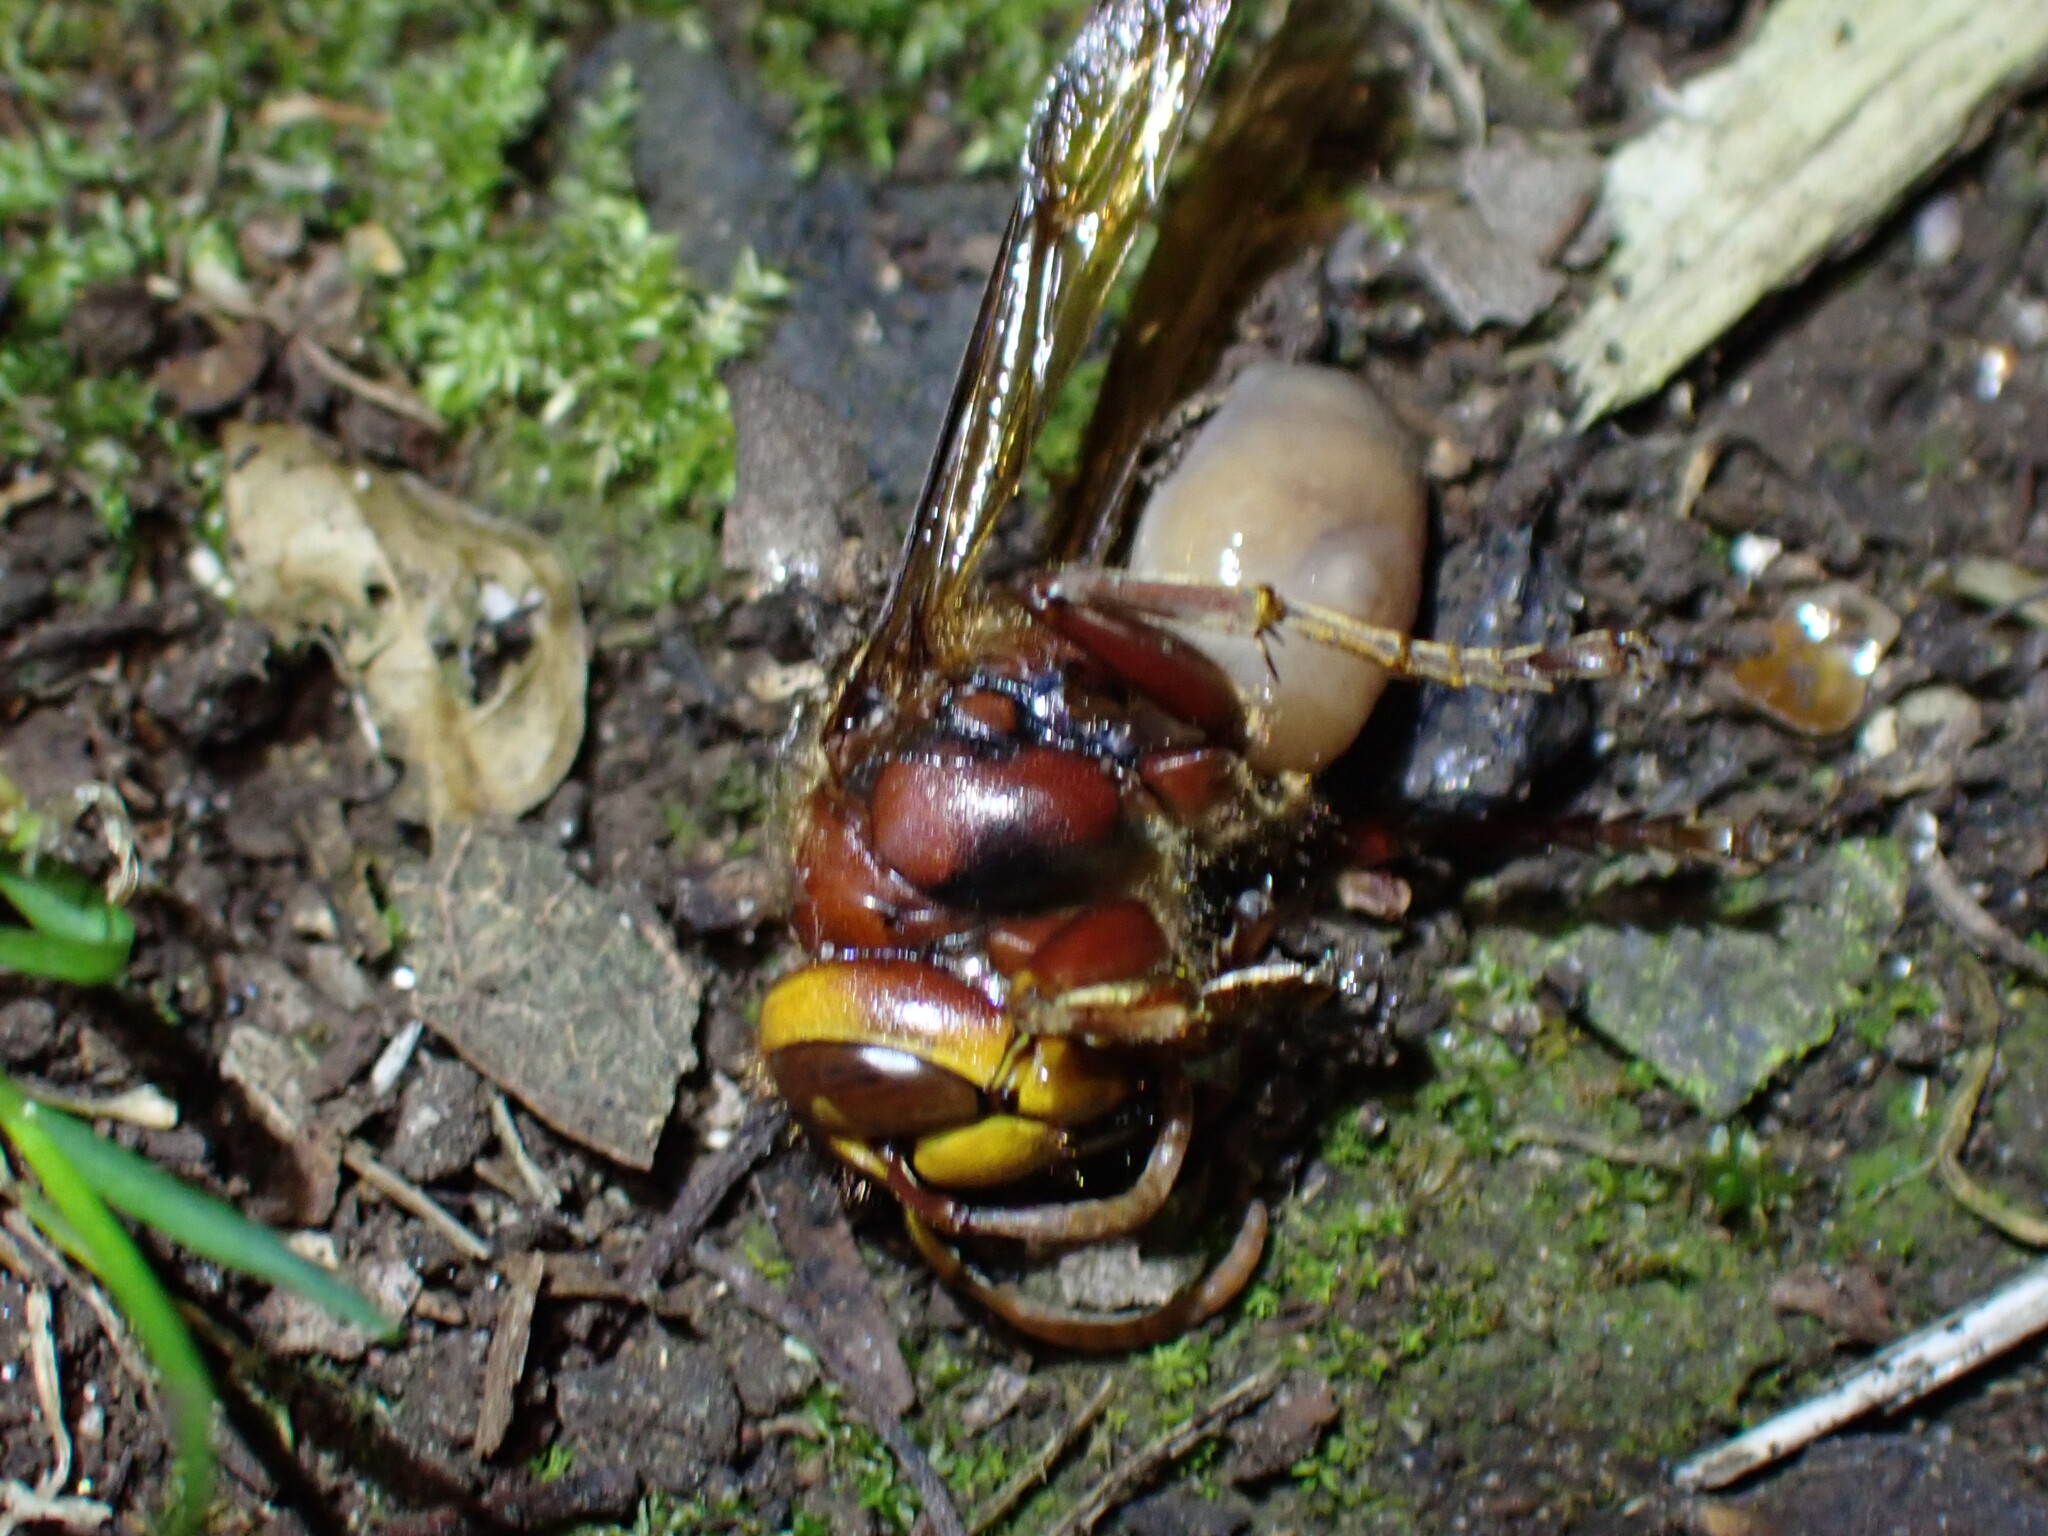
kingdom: Animalia
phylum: Arthropoda
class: Insecta
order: Hymenoptera
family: Vespidae
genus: Vespa
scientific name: Vespa crabro
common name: Hornet
